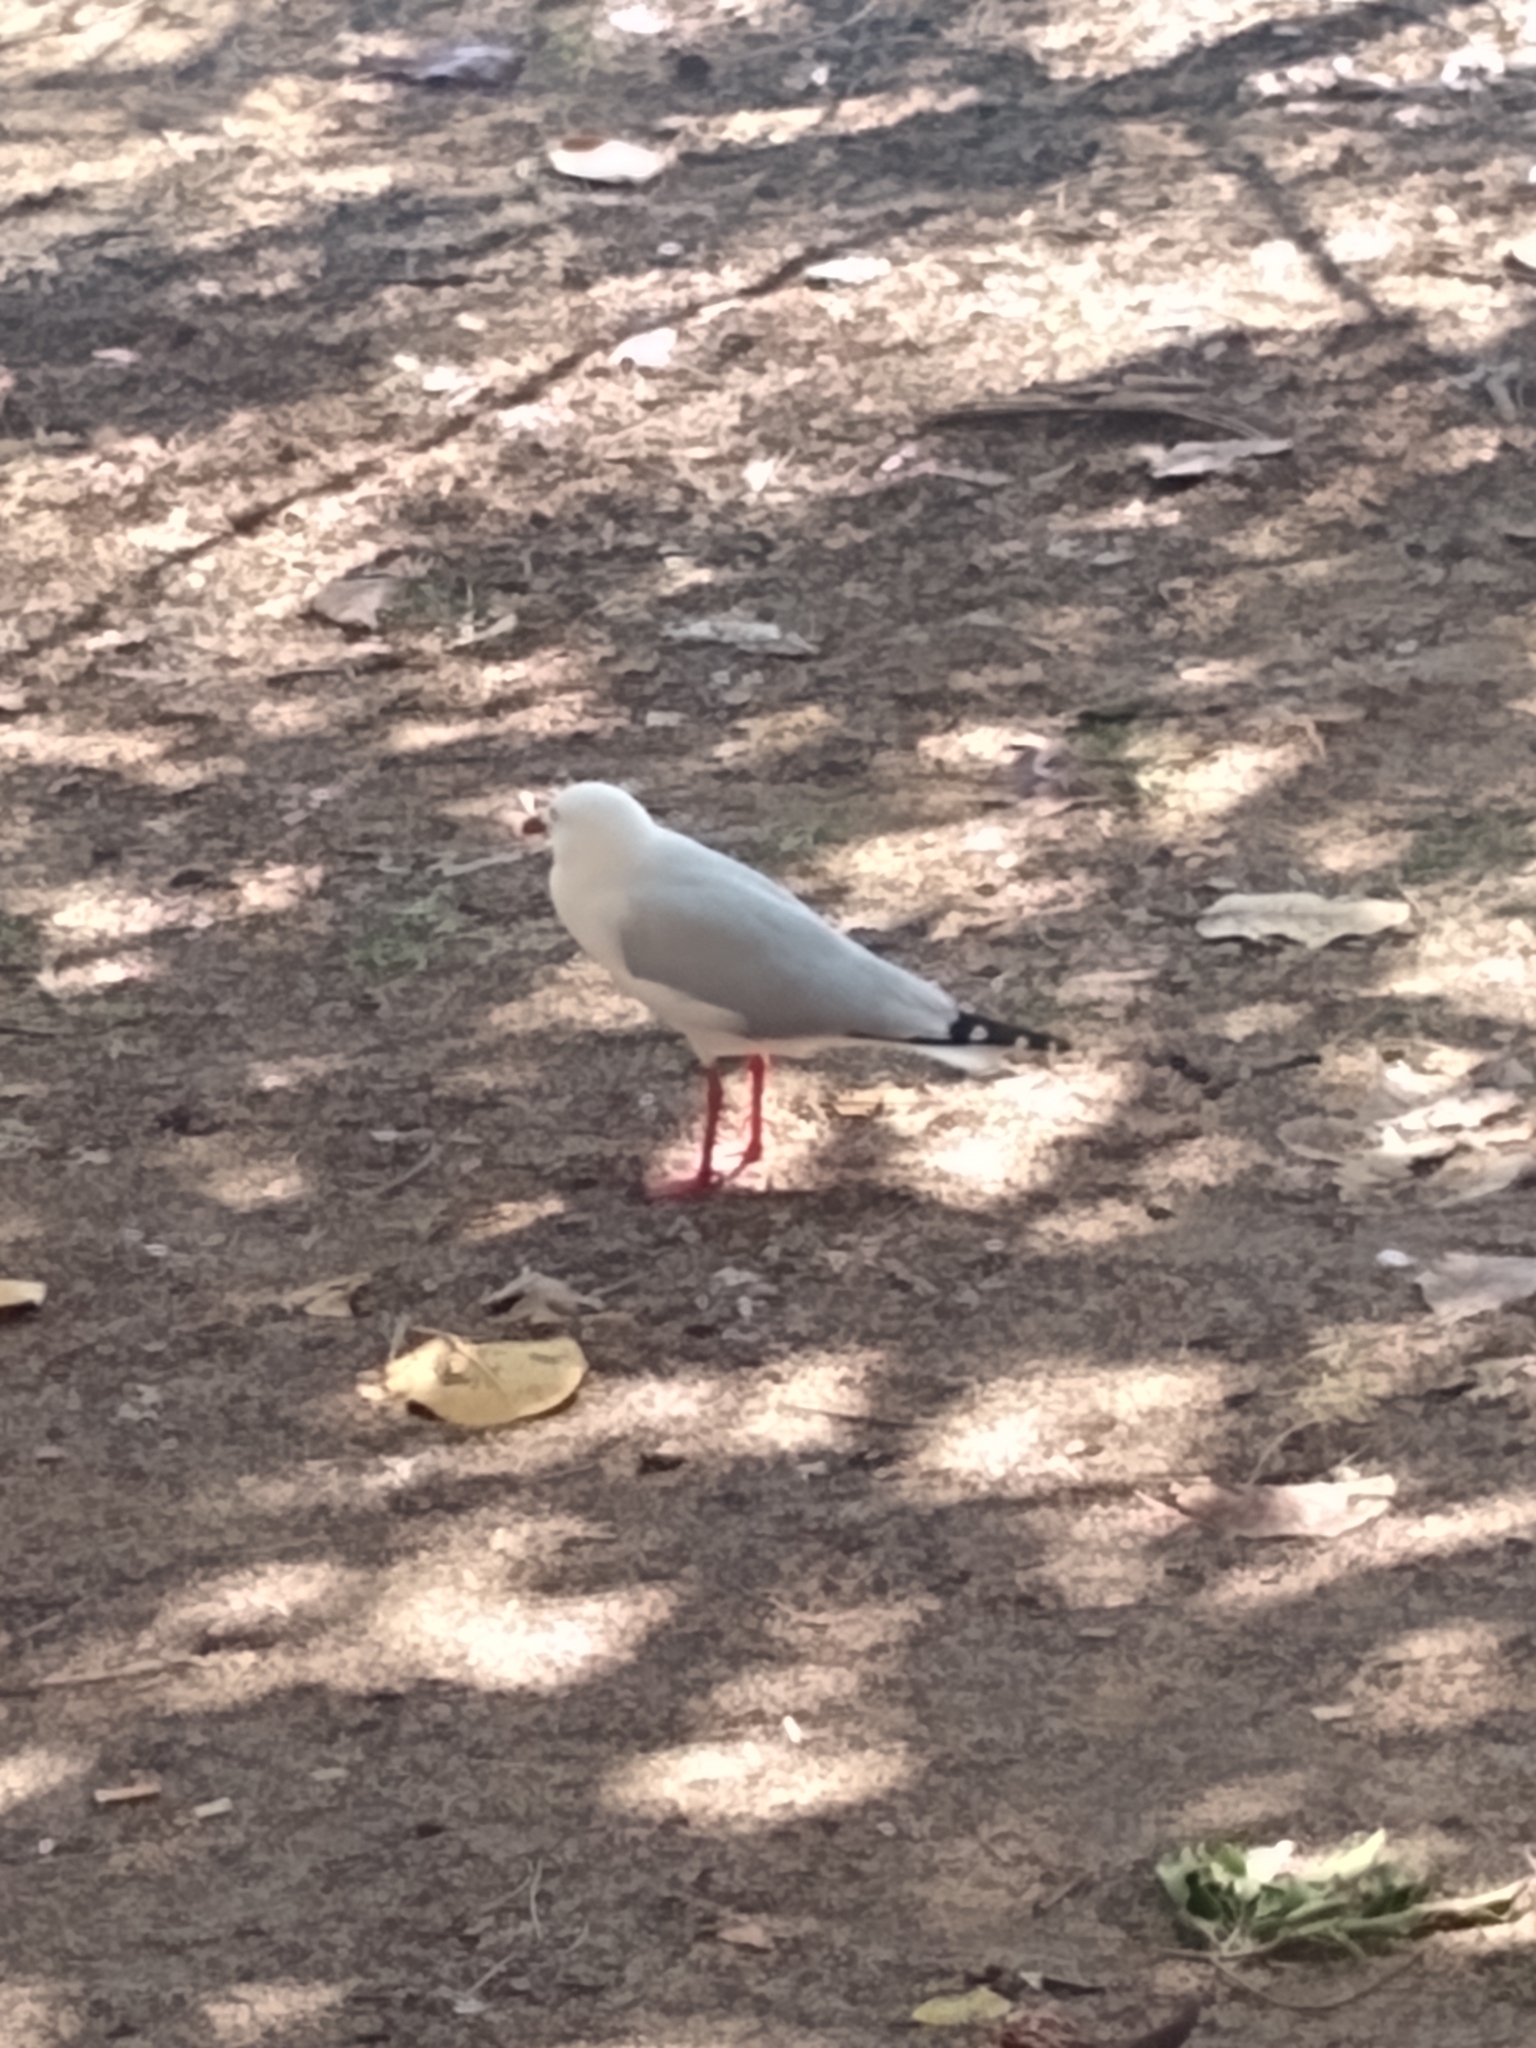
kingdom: Animalia
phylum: Chordata
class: Aves
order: Charadriiformes
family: Laridae
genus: Chroicocephalus
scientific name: Chroicocephalus novaehollandiae
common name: Silver gull
